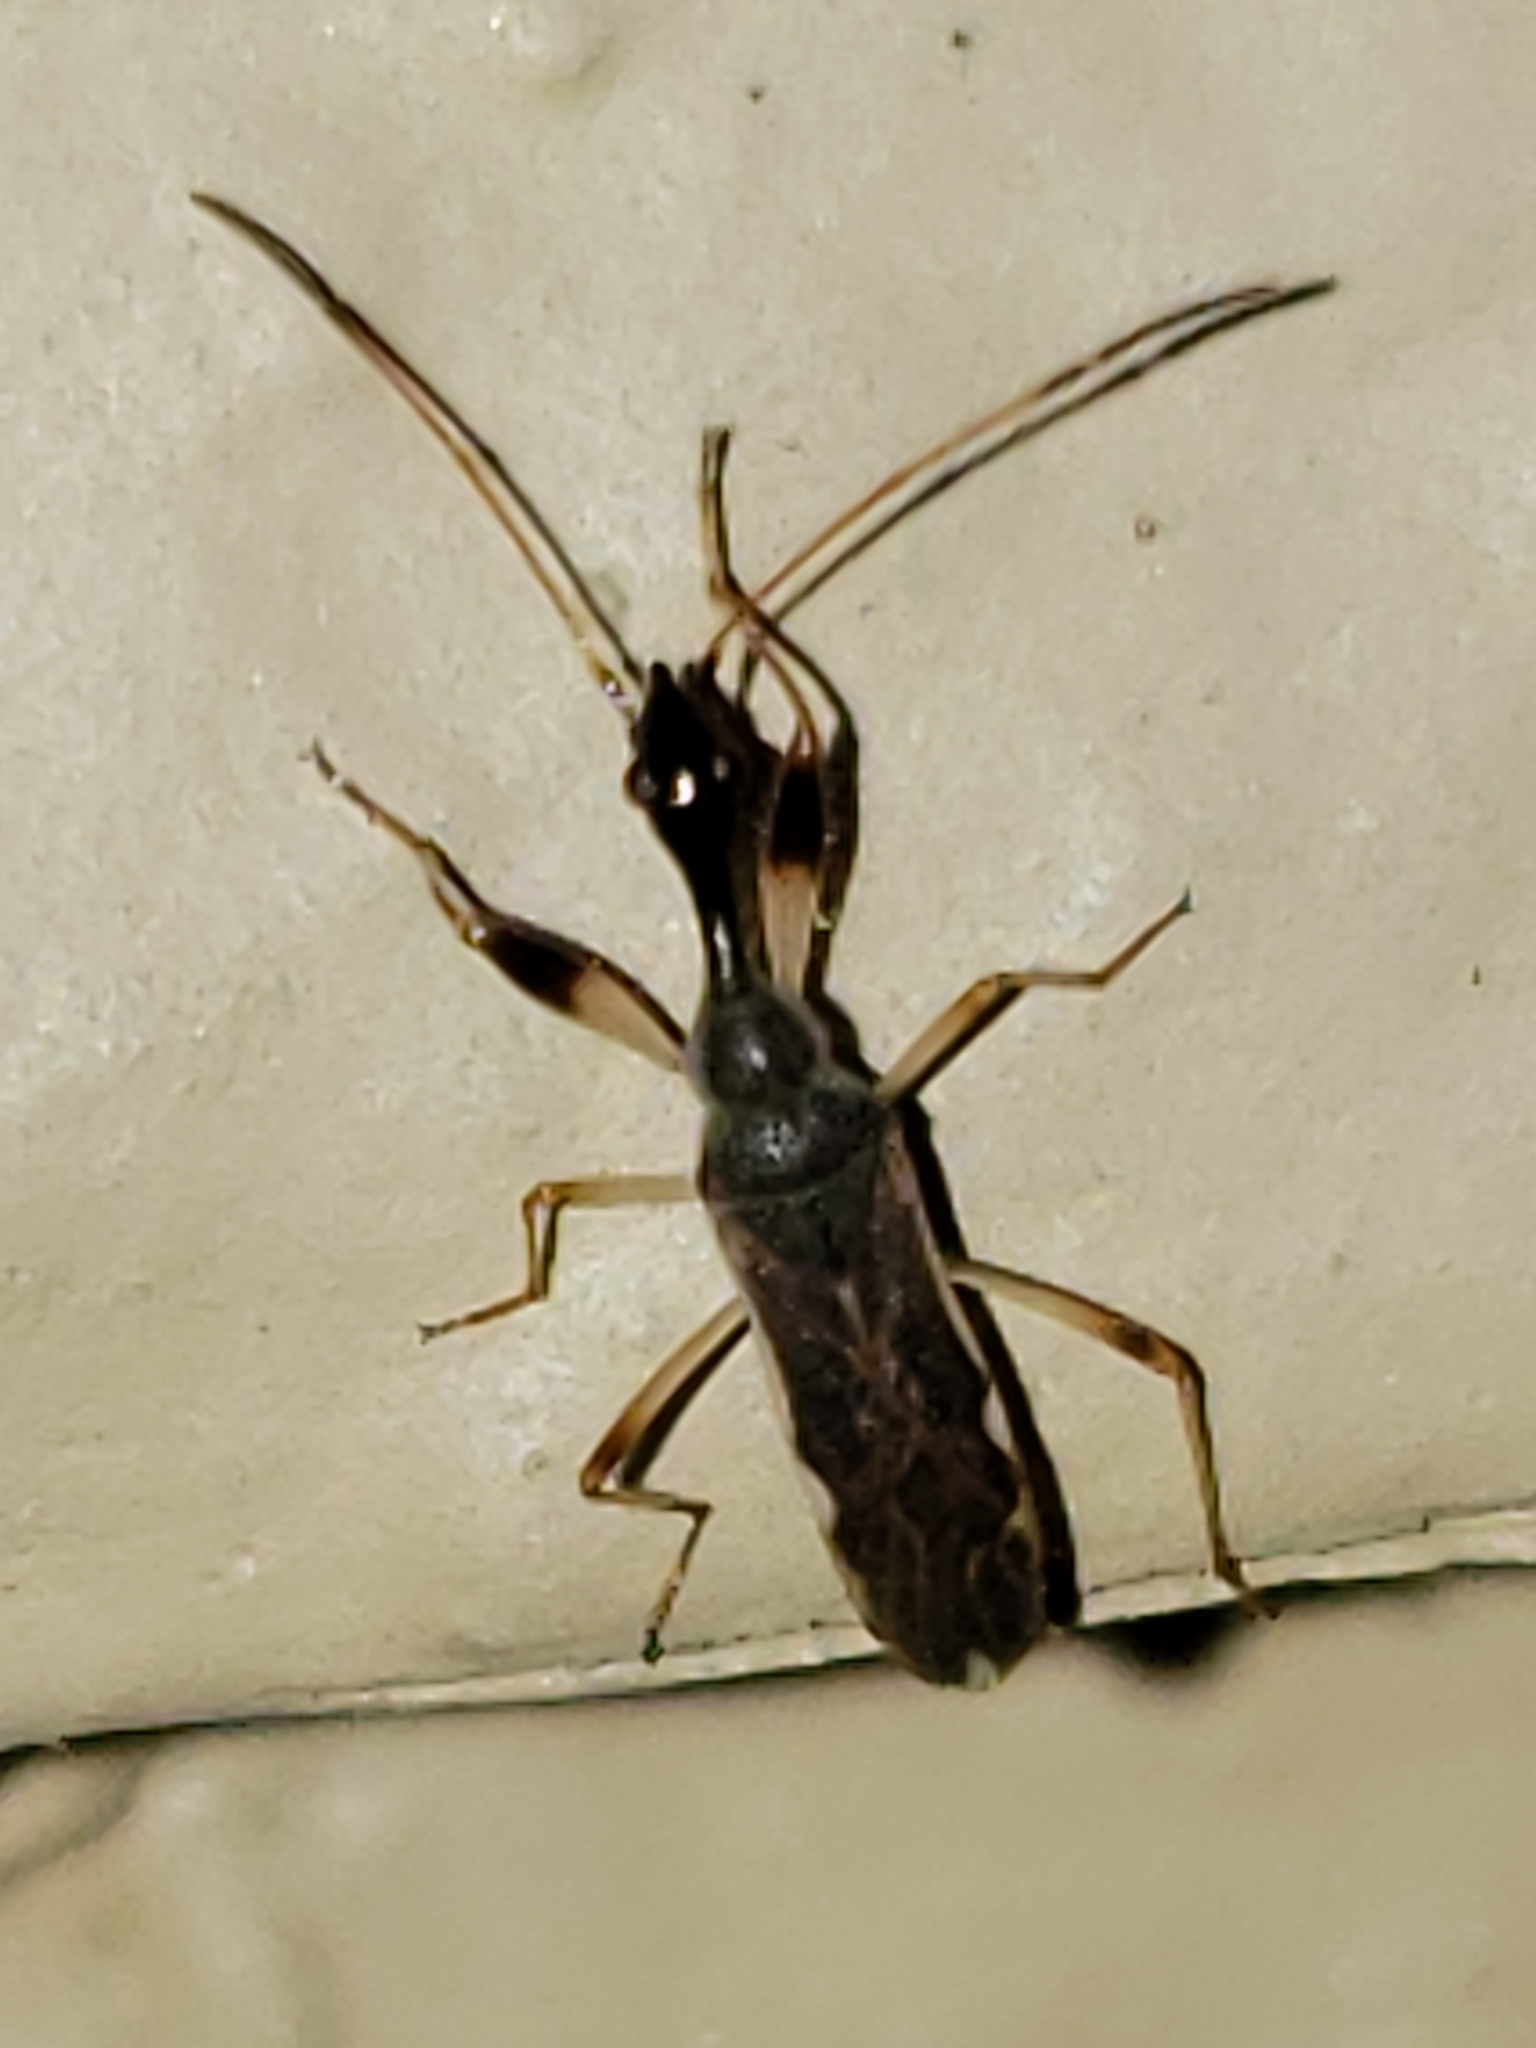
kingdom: Animalia
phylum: Arthropoda
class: Insecta
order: Hemiptera
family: Rhyparochromidae
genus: Myodocha
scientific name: Myodocha serripes
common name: Long-necked seed bug
